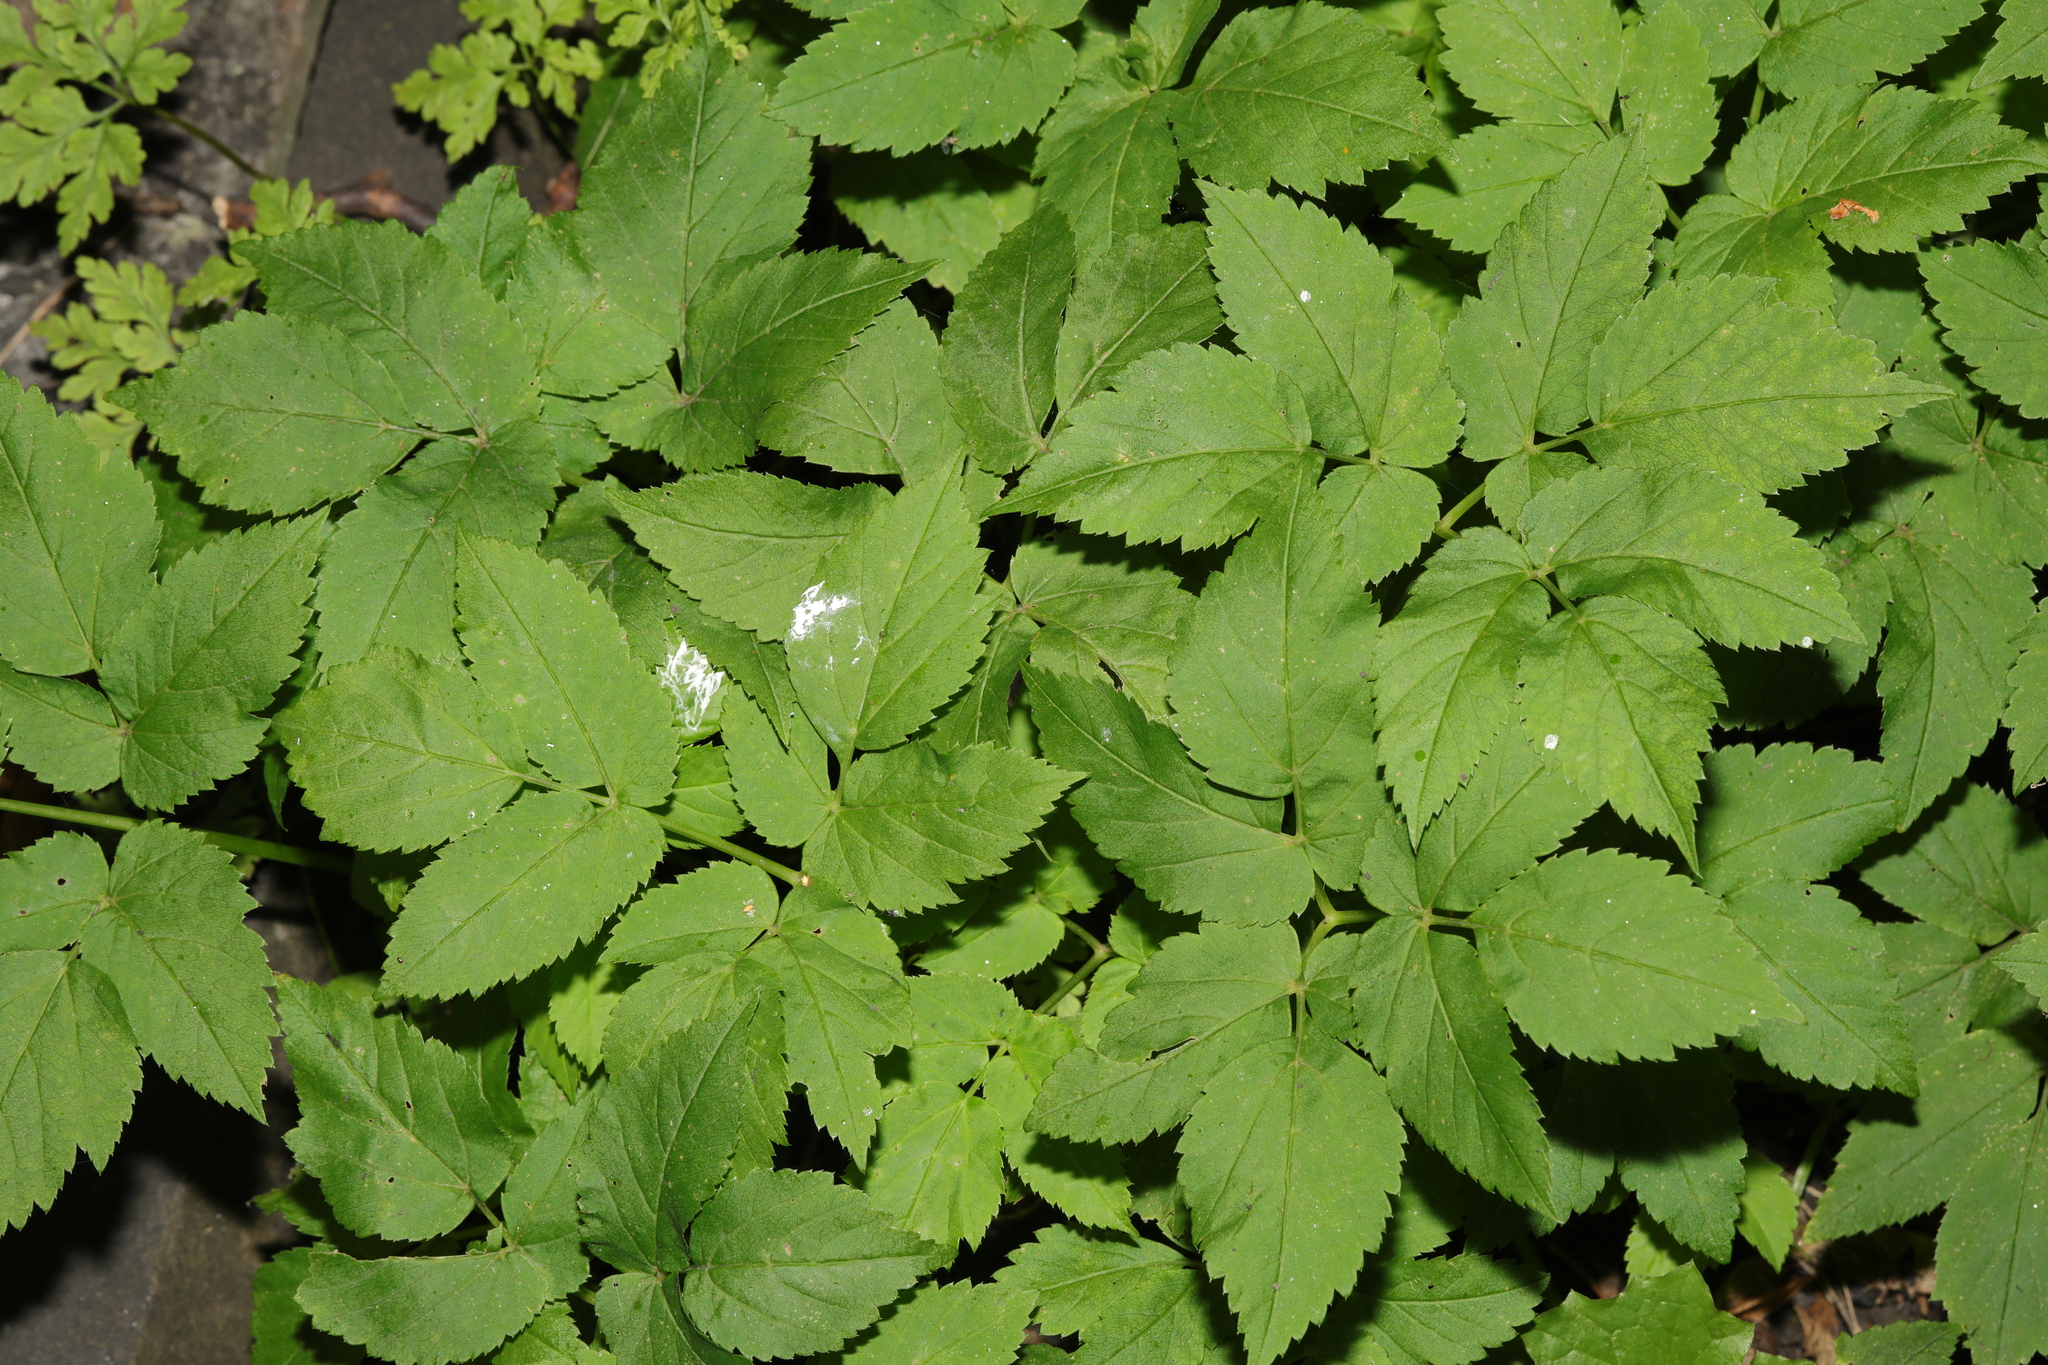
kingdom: Plantae
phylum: Tracheophyta
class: Magnoliopsida
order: Apiales
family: Apiaceae
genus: Aegopodium
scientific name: Aegopodium podagraria
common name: Ground-elder
